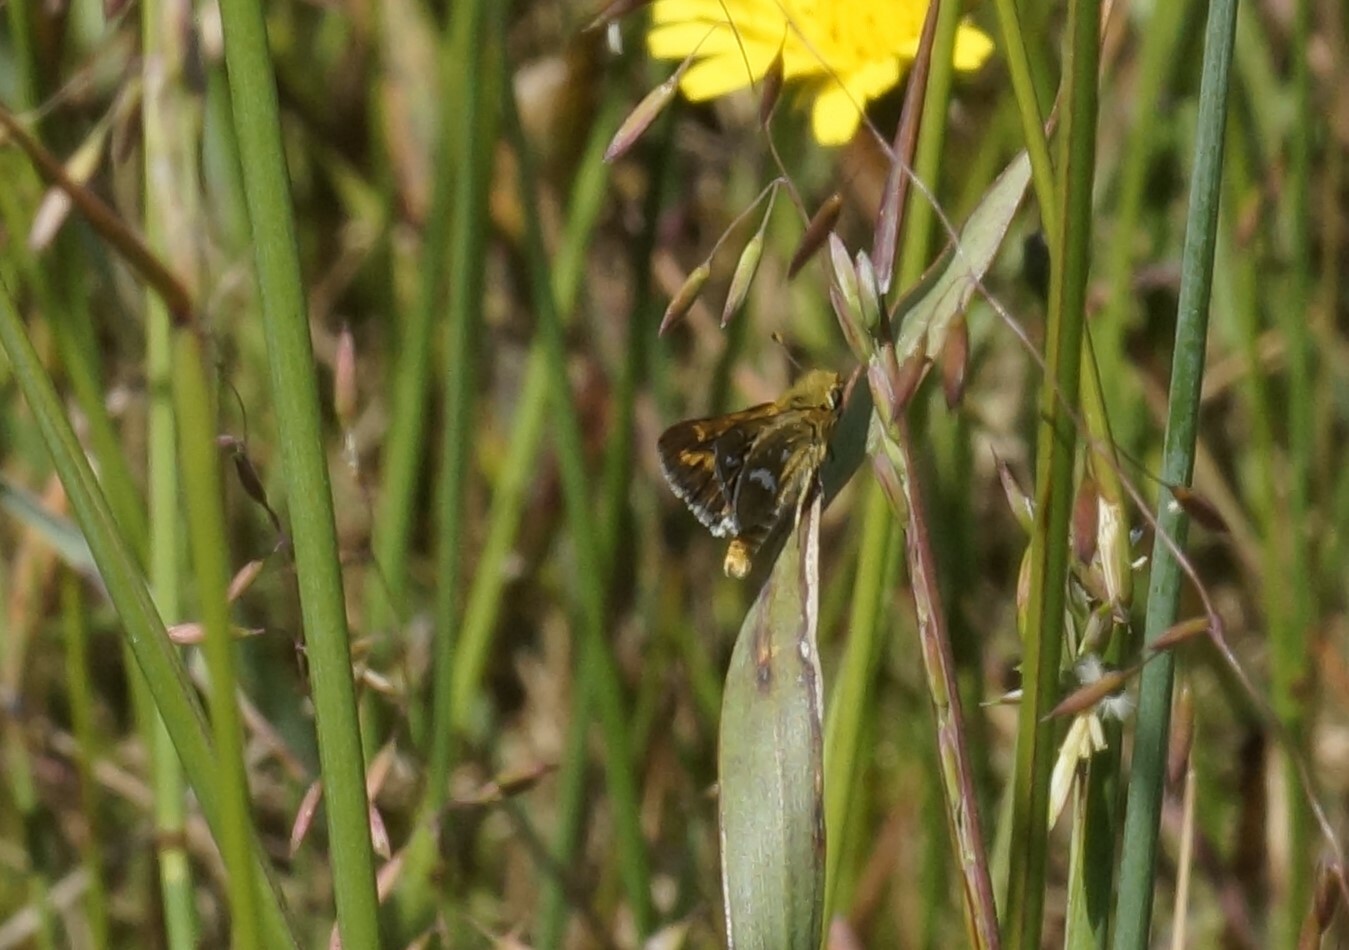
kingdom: Animalia
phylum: Arthropoda
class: Insecta
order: Lepidoptera
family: Hesperiidae
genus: Taractrocera
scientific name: Taractrocera papyria
